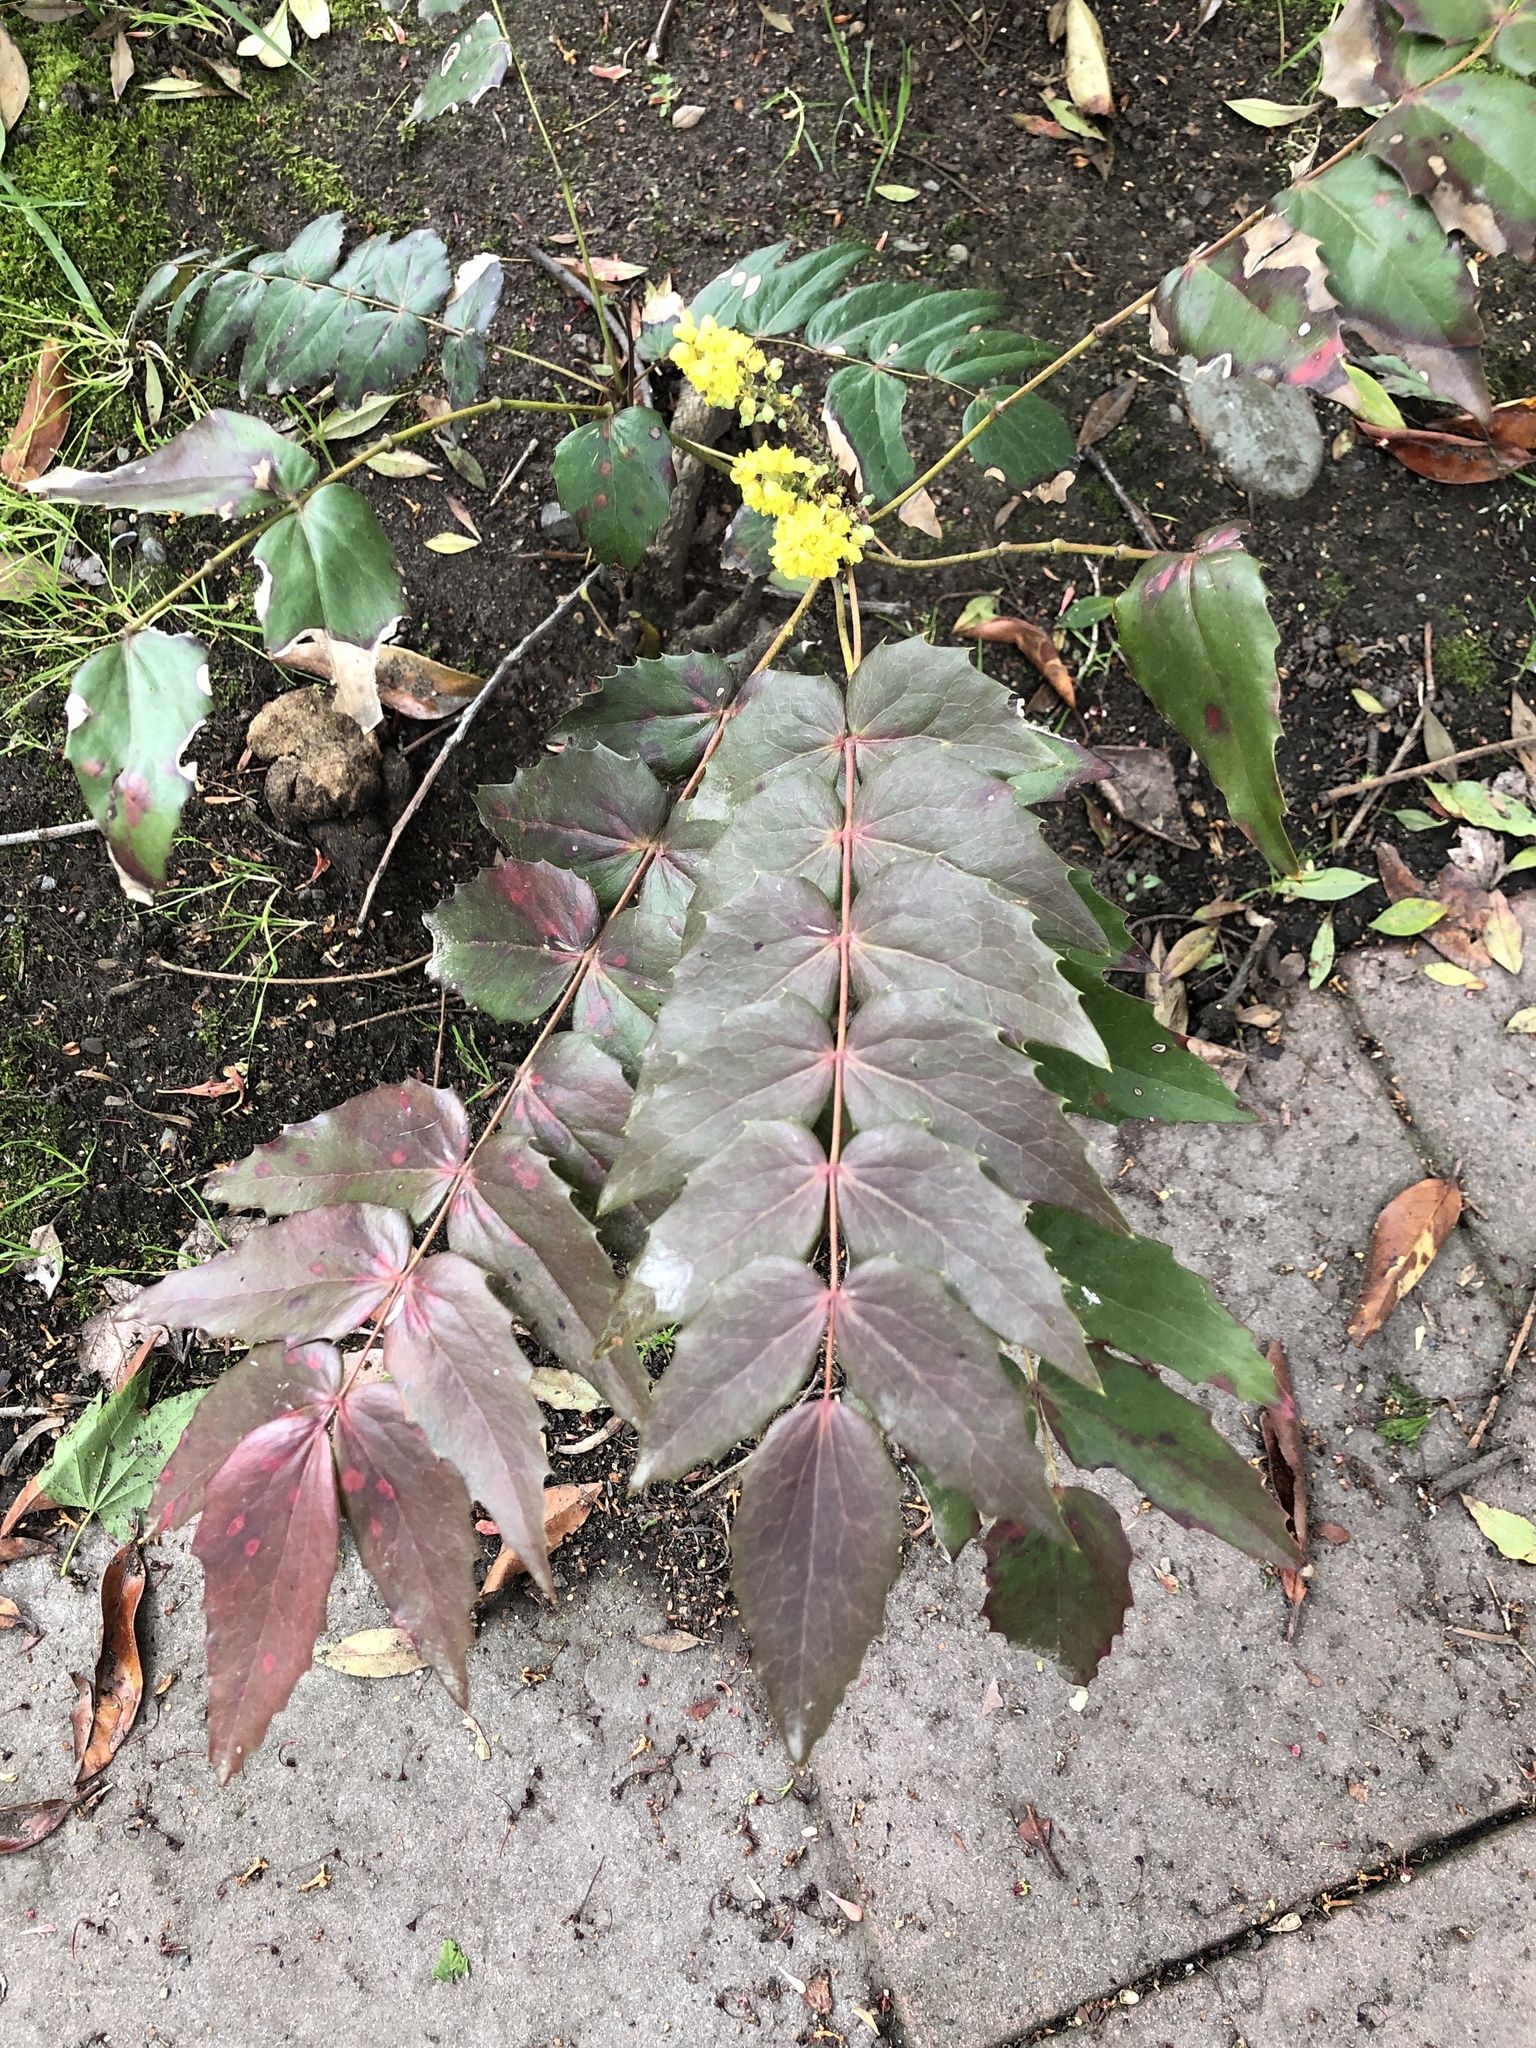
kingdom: Plantae
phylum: Tracheophyta
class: Magnoliopsida
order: Ranunculales
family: Berberidaceae
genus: Mahonia
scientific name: Mahonia nervosa
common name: Cascade oregon-grape
